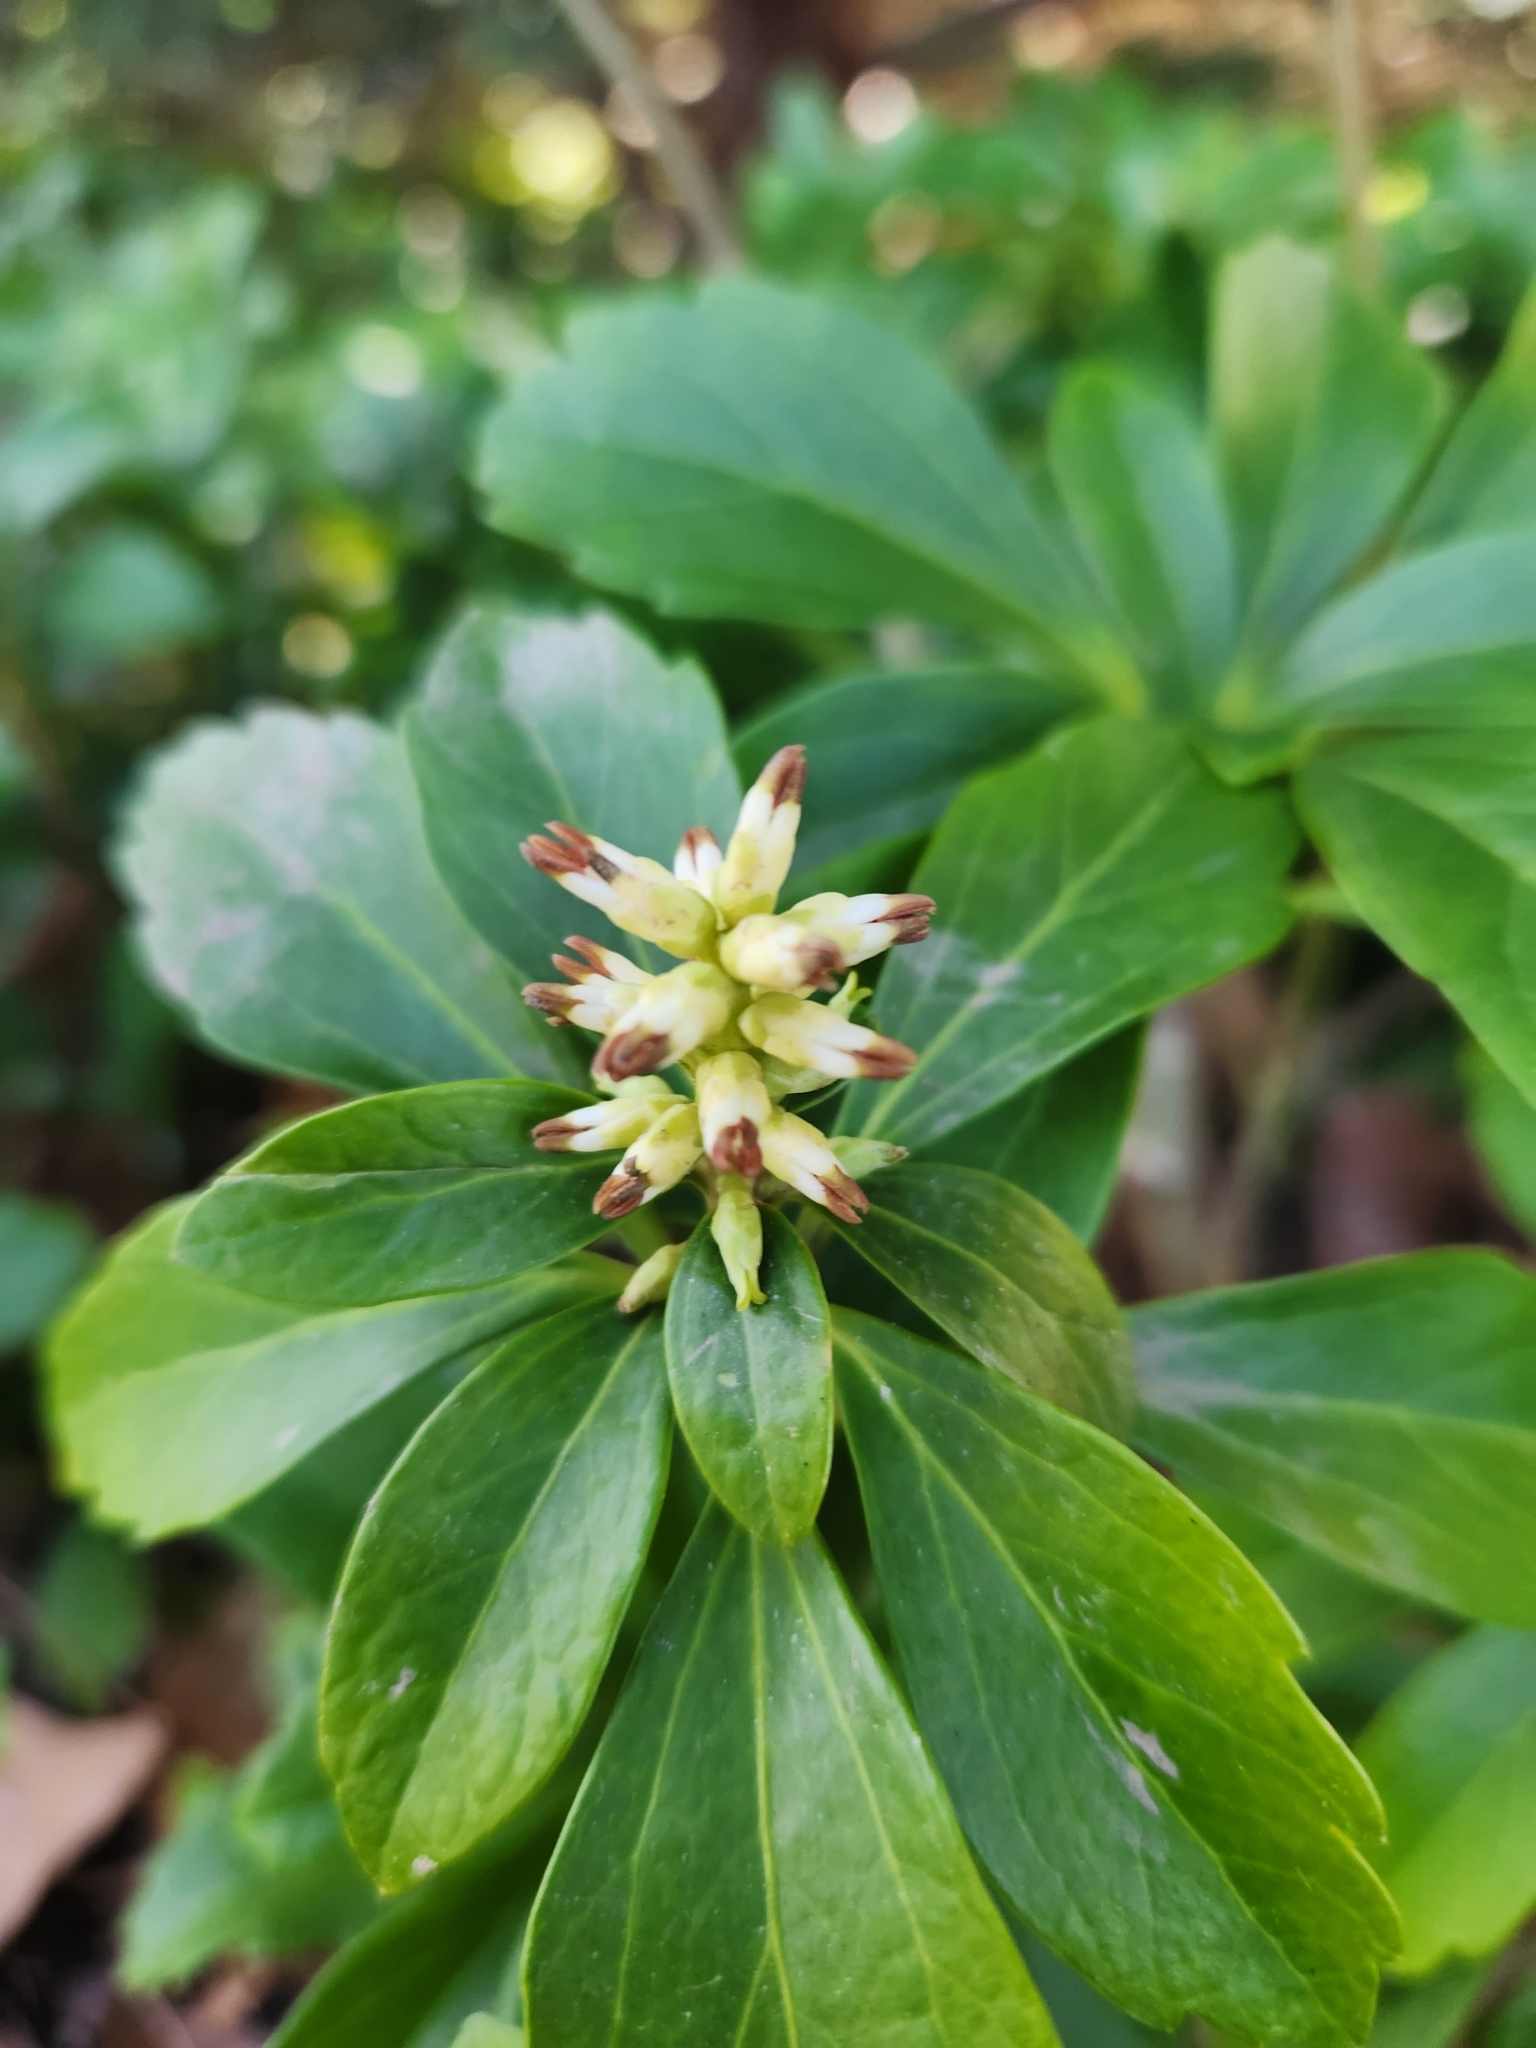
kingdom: Plantae
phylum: Tracheophyta
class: Magnoliopsida
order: Buxales
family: Buxaceae
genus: Pachysandra
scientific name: Pachysandra terminalis
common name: Japanese pachysandra
